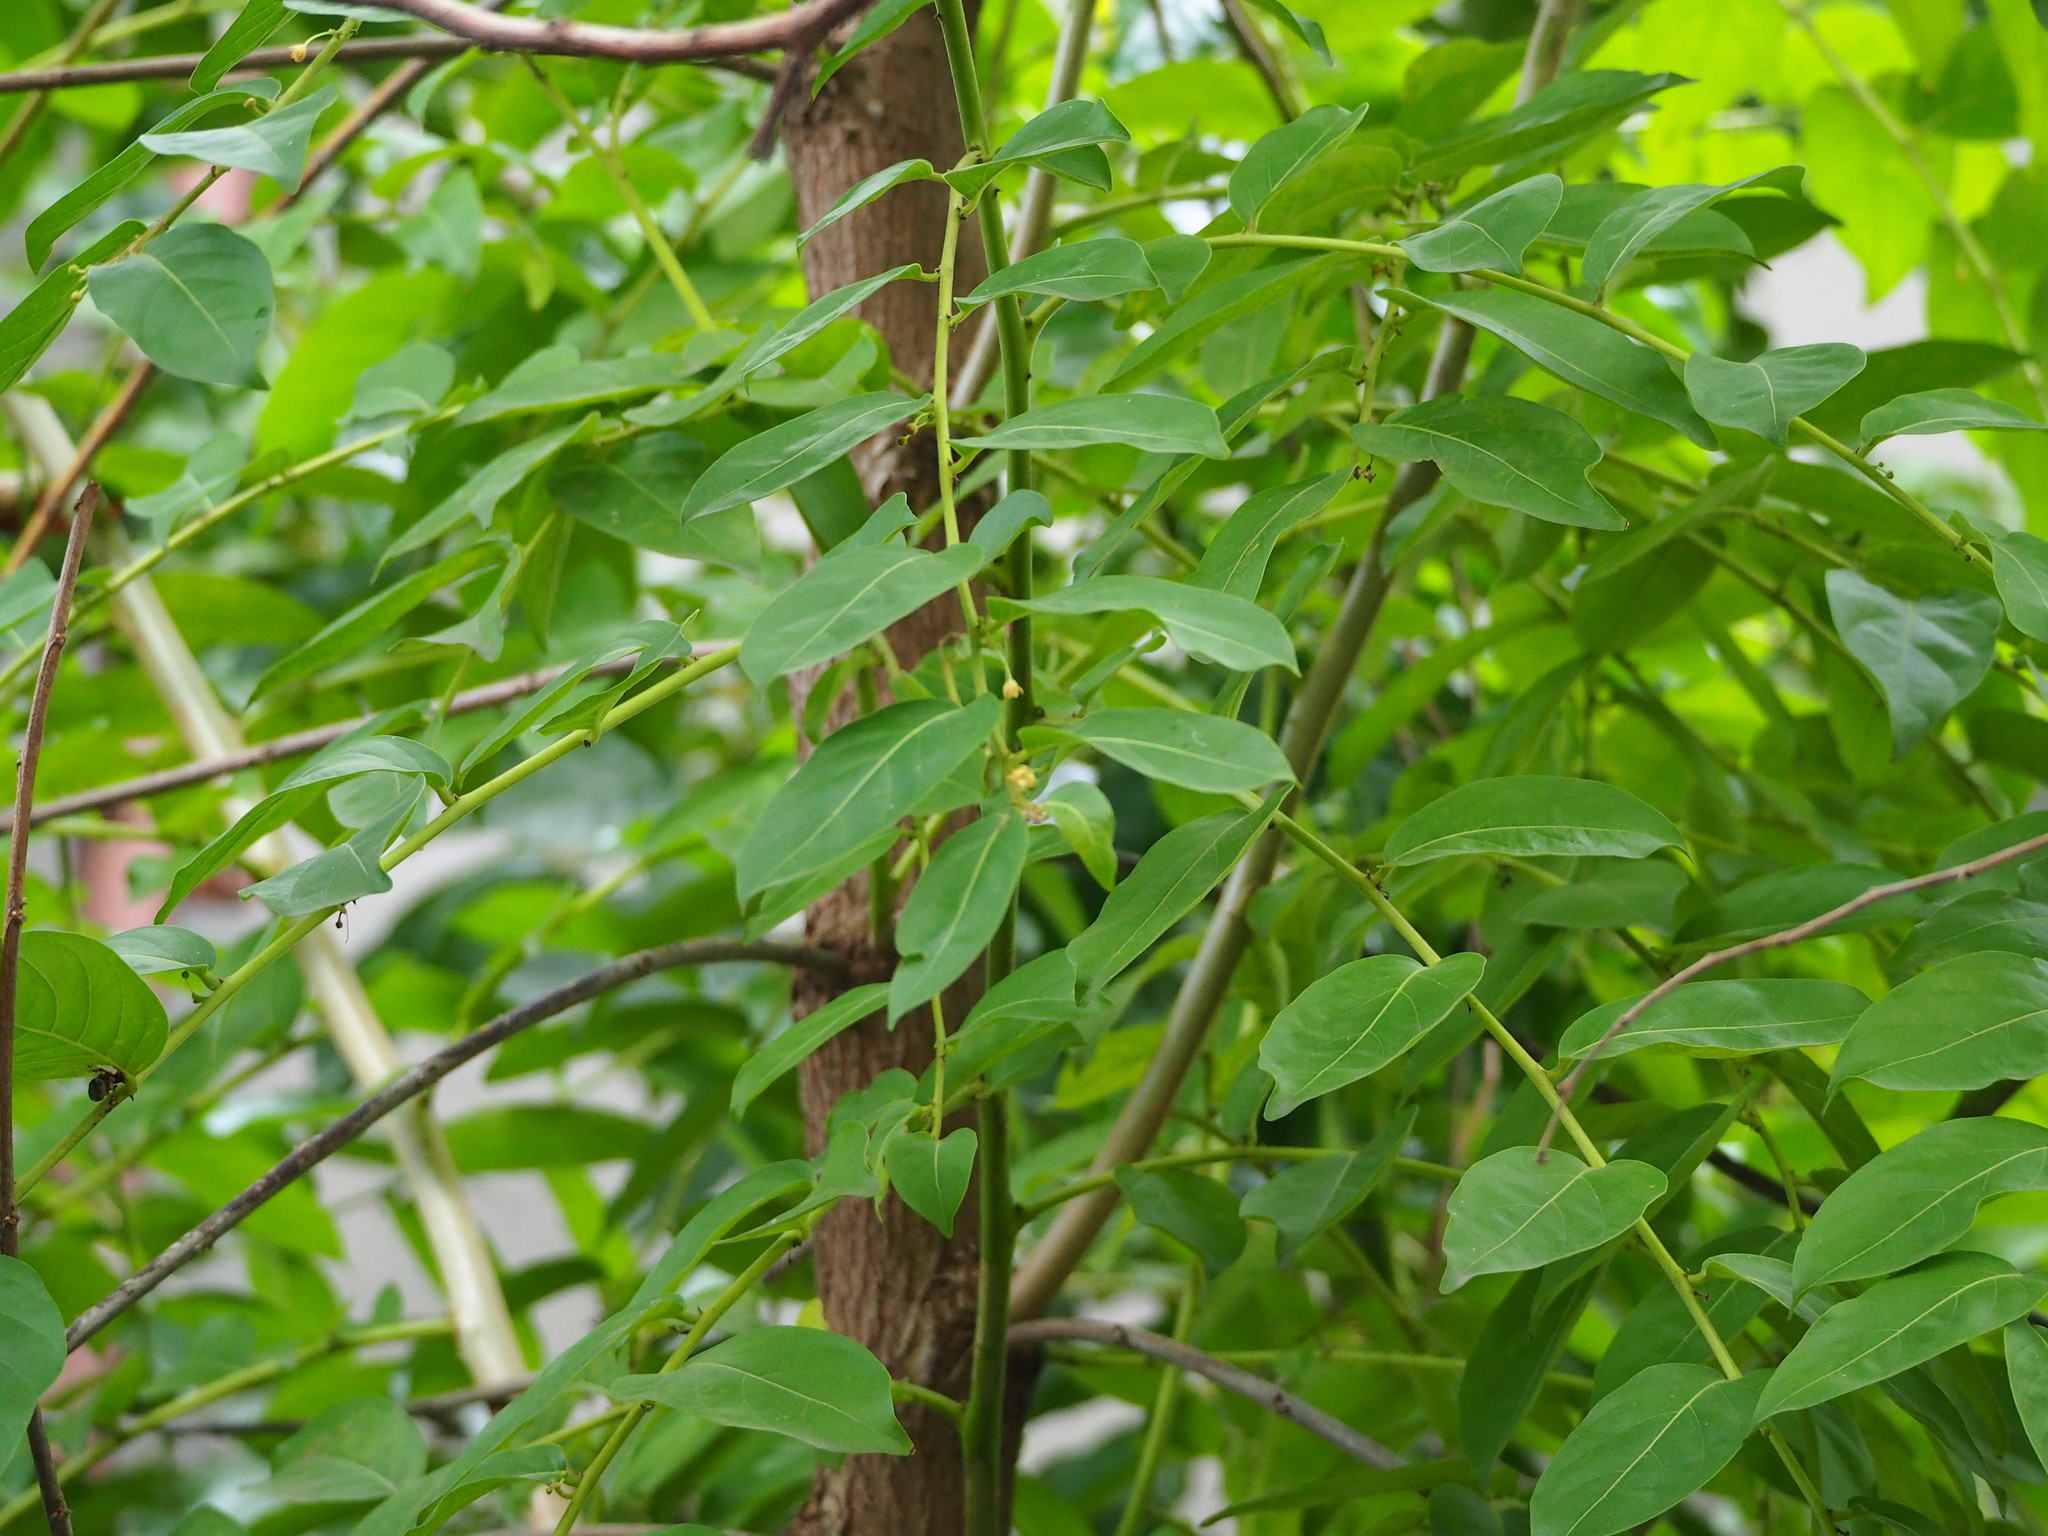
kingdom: Plantae
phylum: Tracheophyta
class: Magnoliopsida
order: Malpighiales
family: Phyllanthaceae
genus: Glochidion
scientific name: Glochidion zeylanicum
